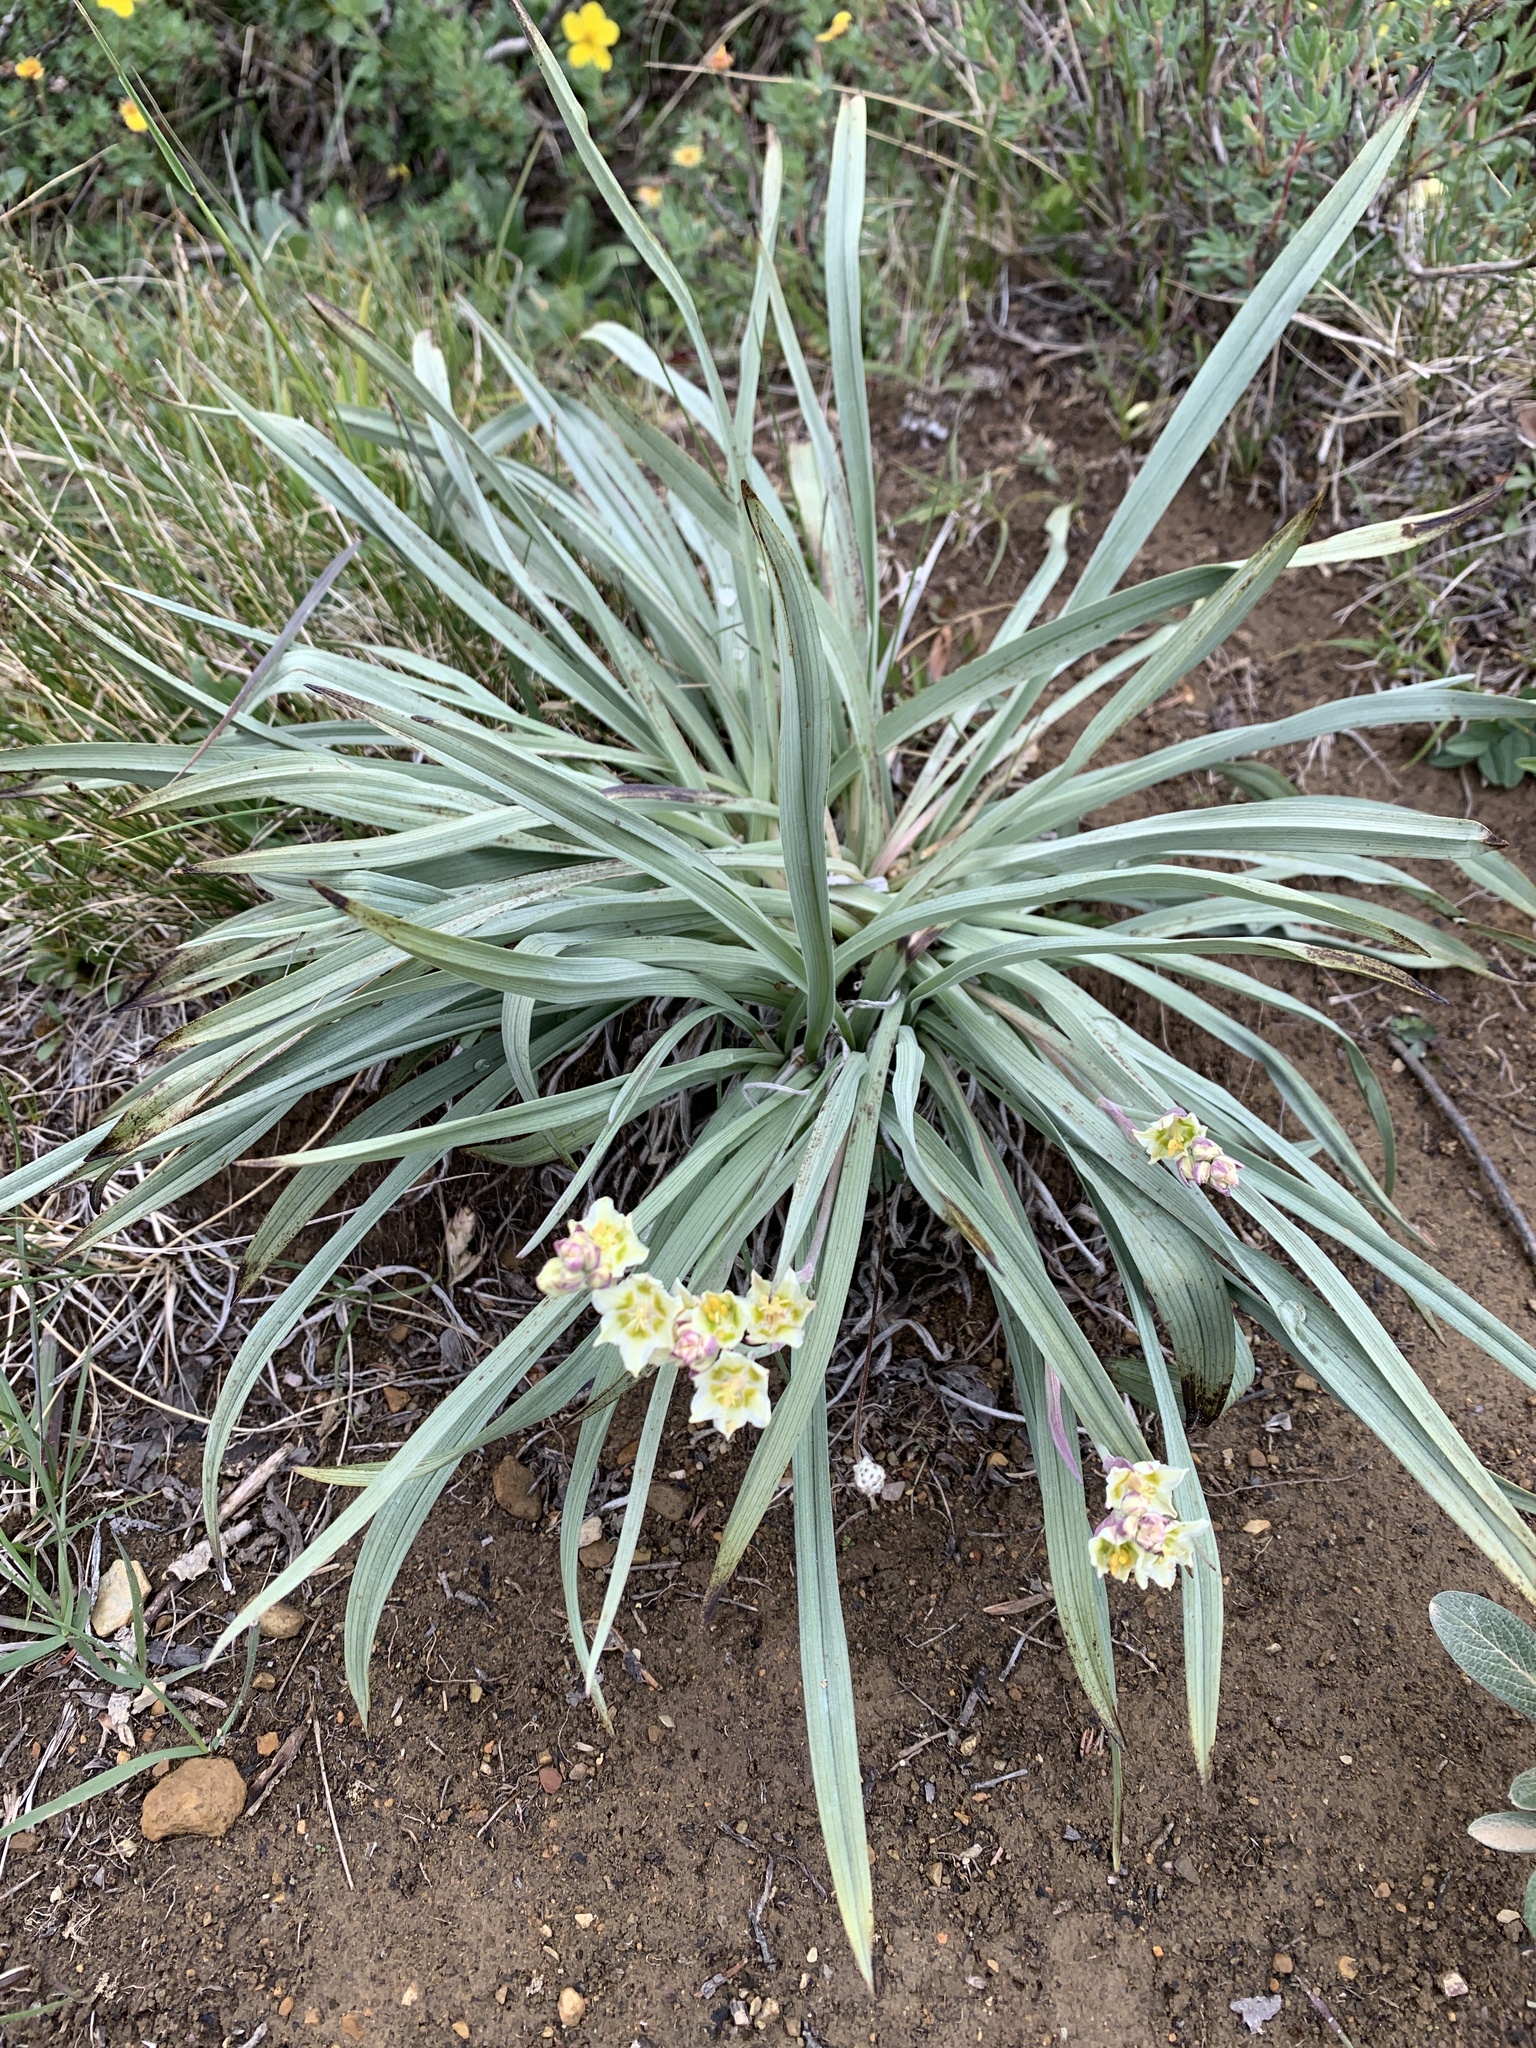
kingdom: Plantae
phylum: Tracheophyta
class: Liliopsida
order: Liliales
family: Melanthiaceae
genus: Anticlea
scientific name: Anticlea elegans
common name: Mountain death camas
